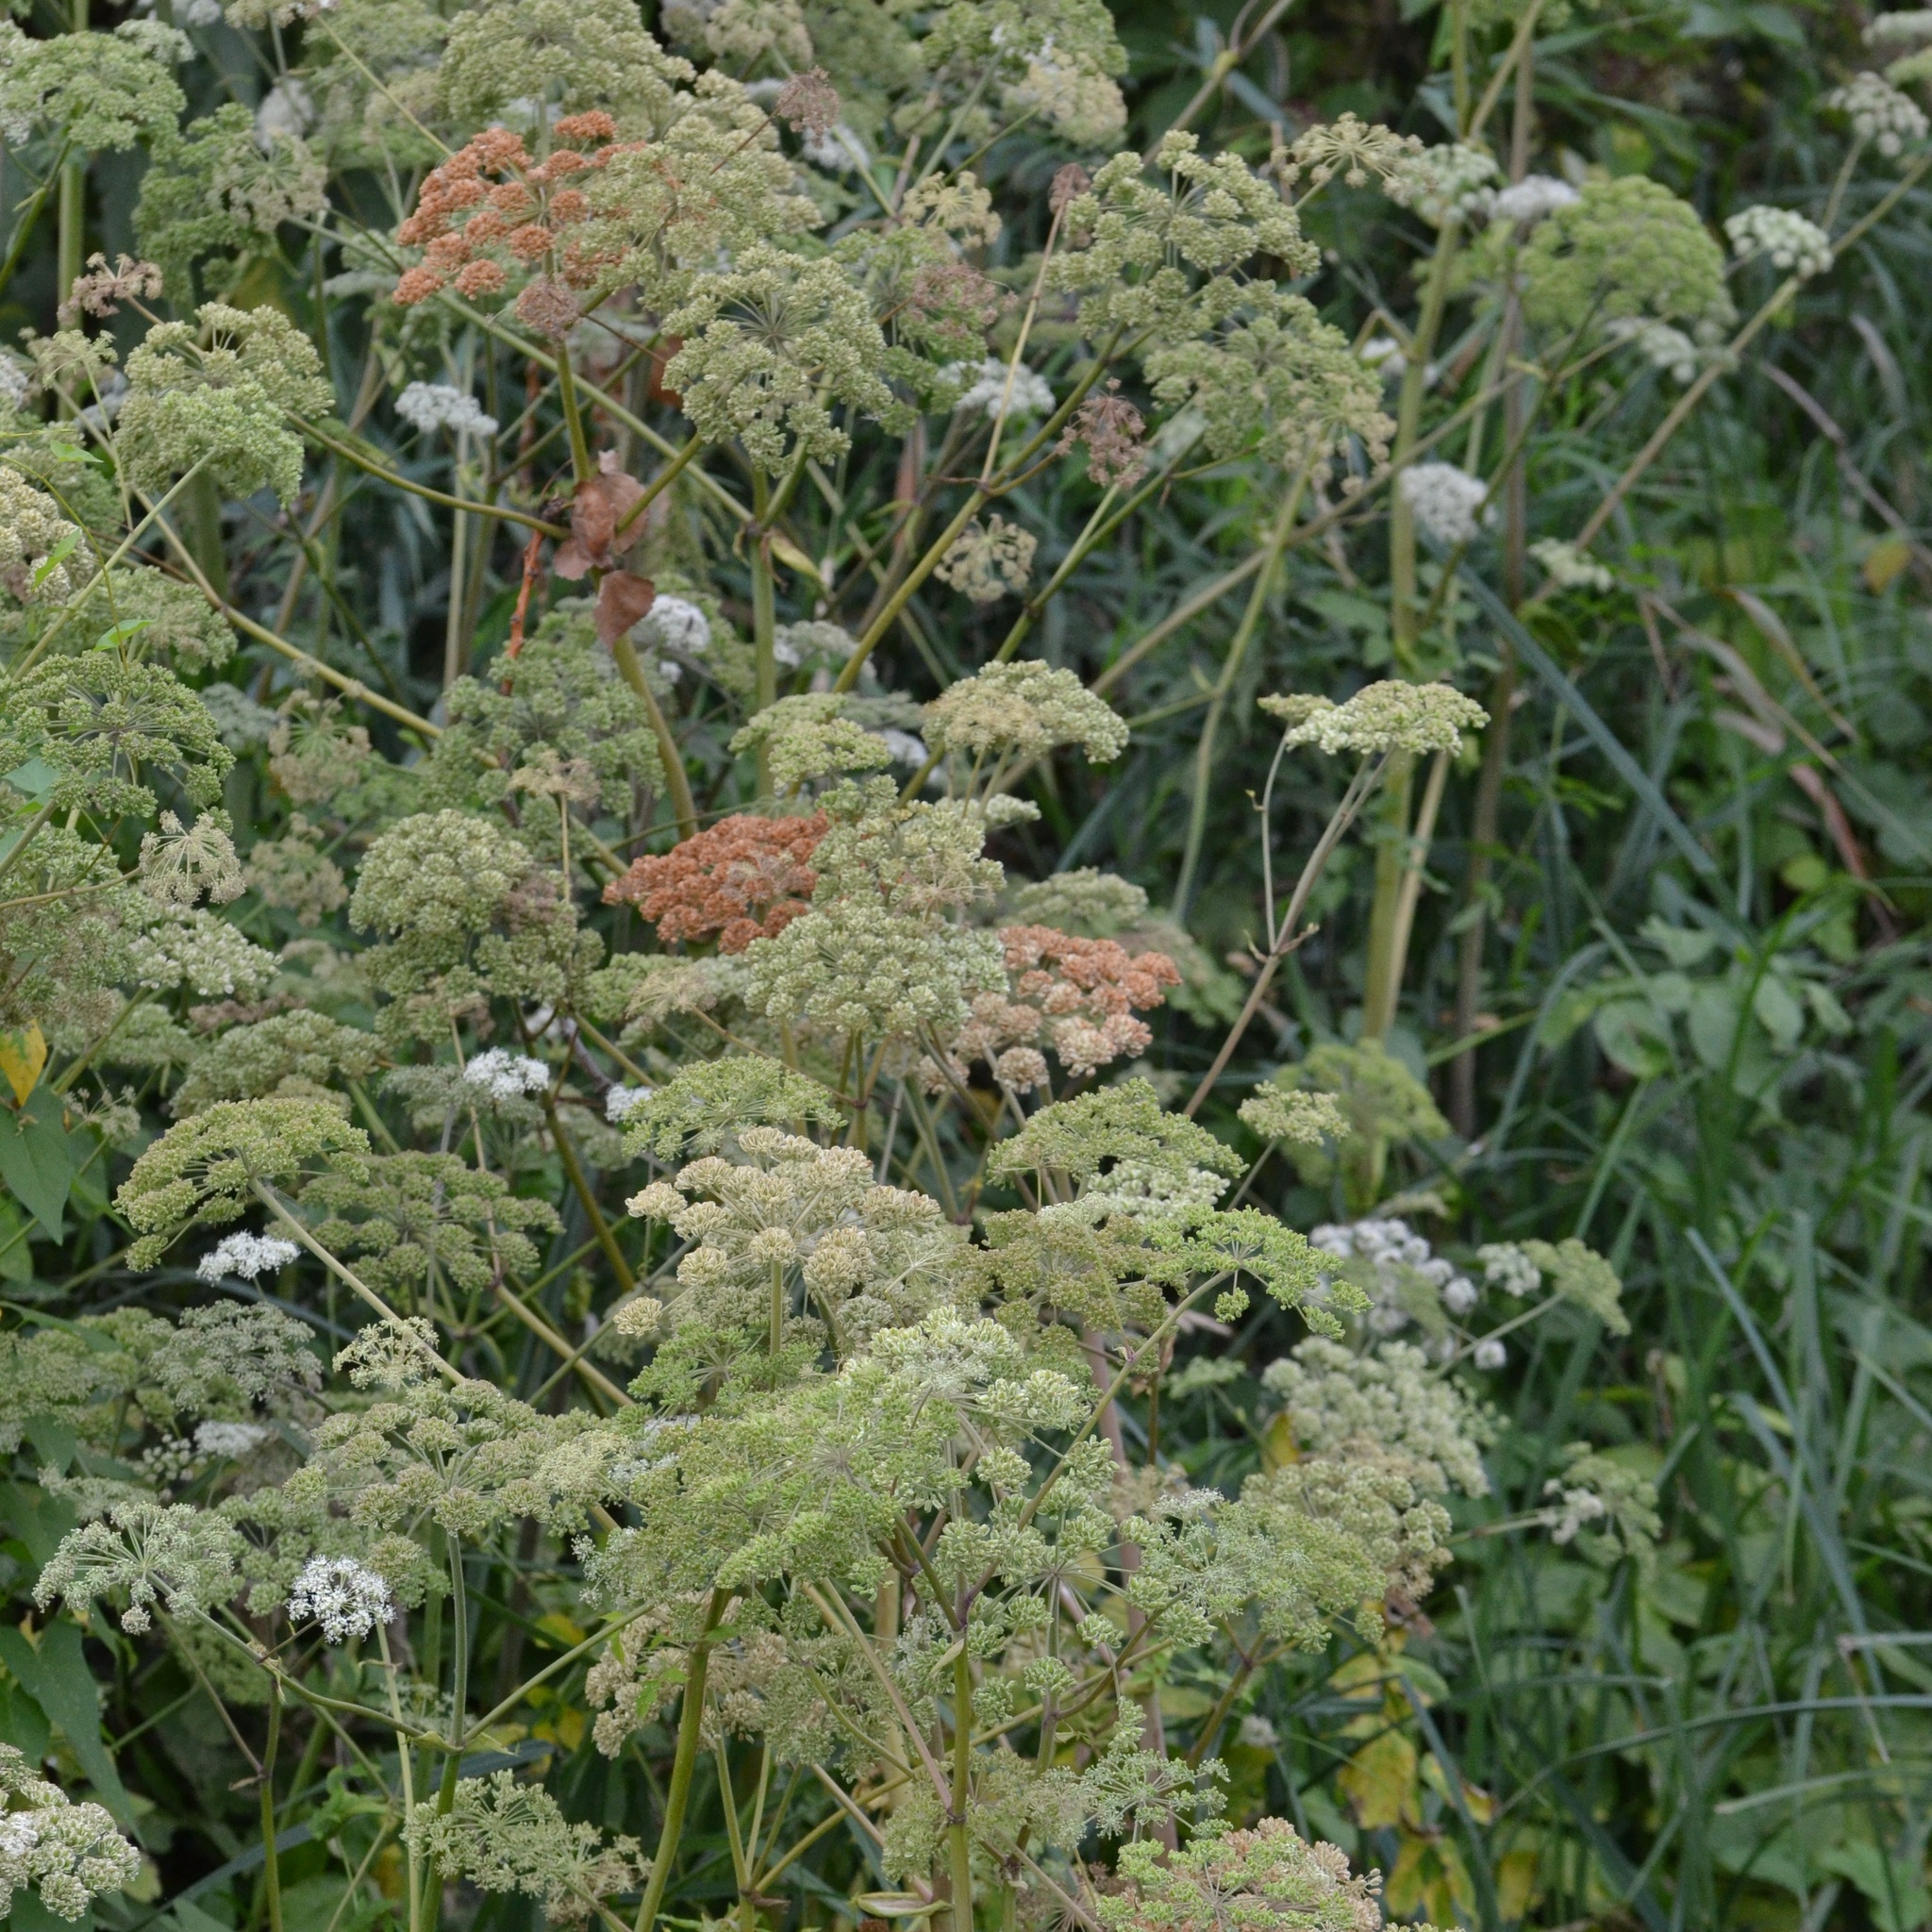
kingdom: Plantae
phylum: Tracheophyta
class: Magnoliopsida
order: Apiales
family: Apiaceae
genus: Angelica
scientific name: Angelica sylvestris
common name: Wild angelica
